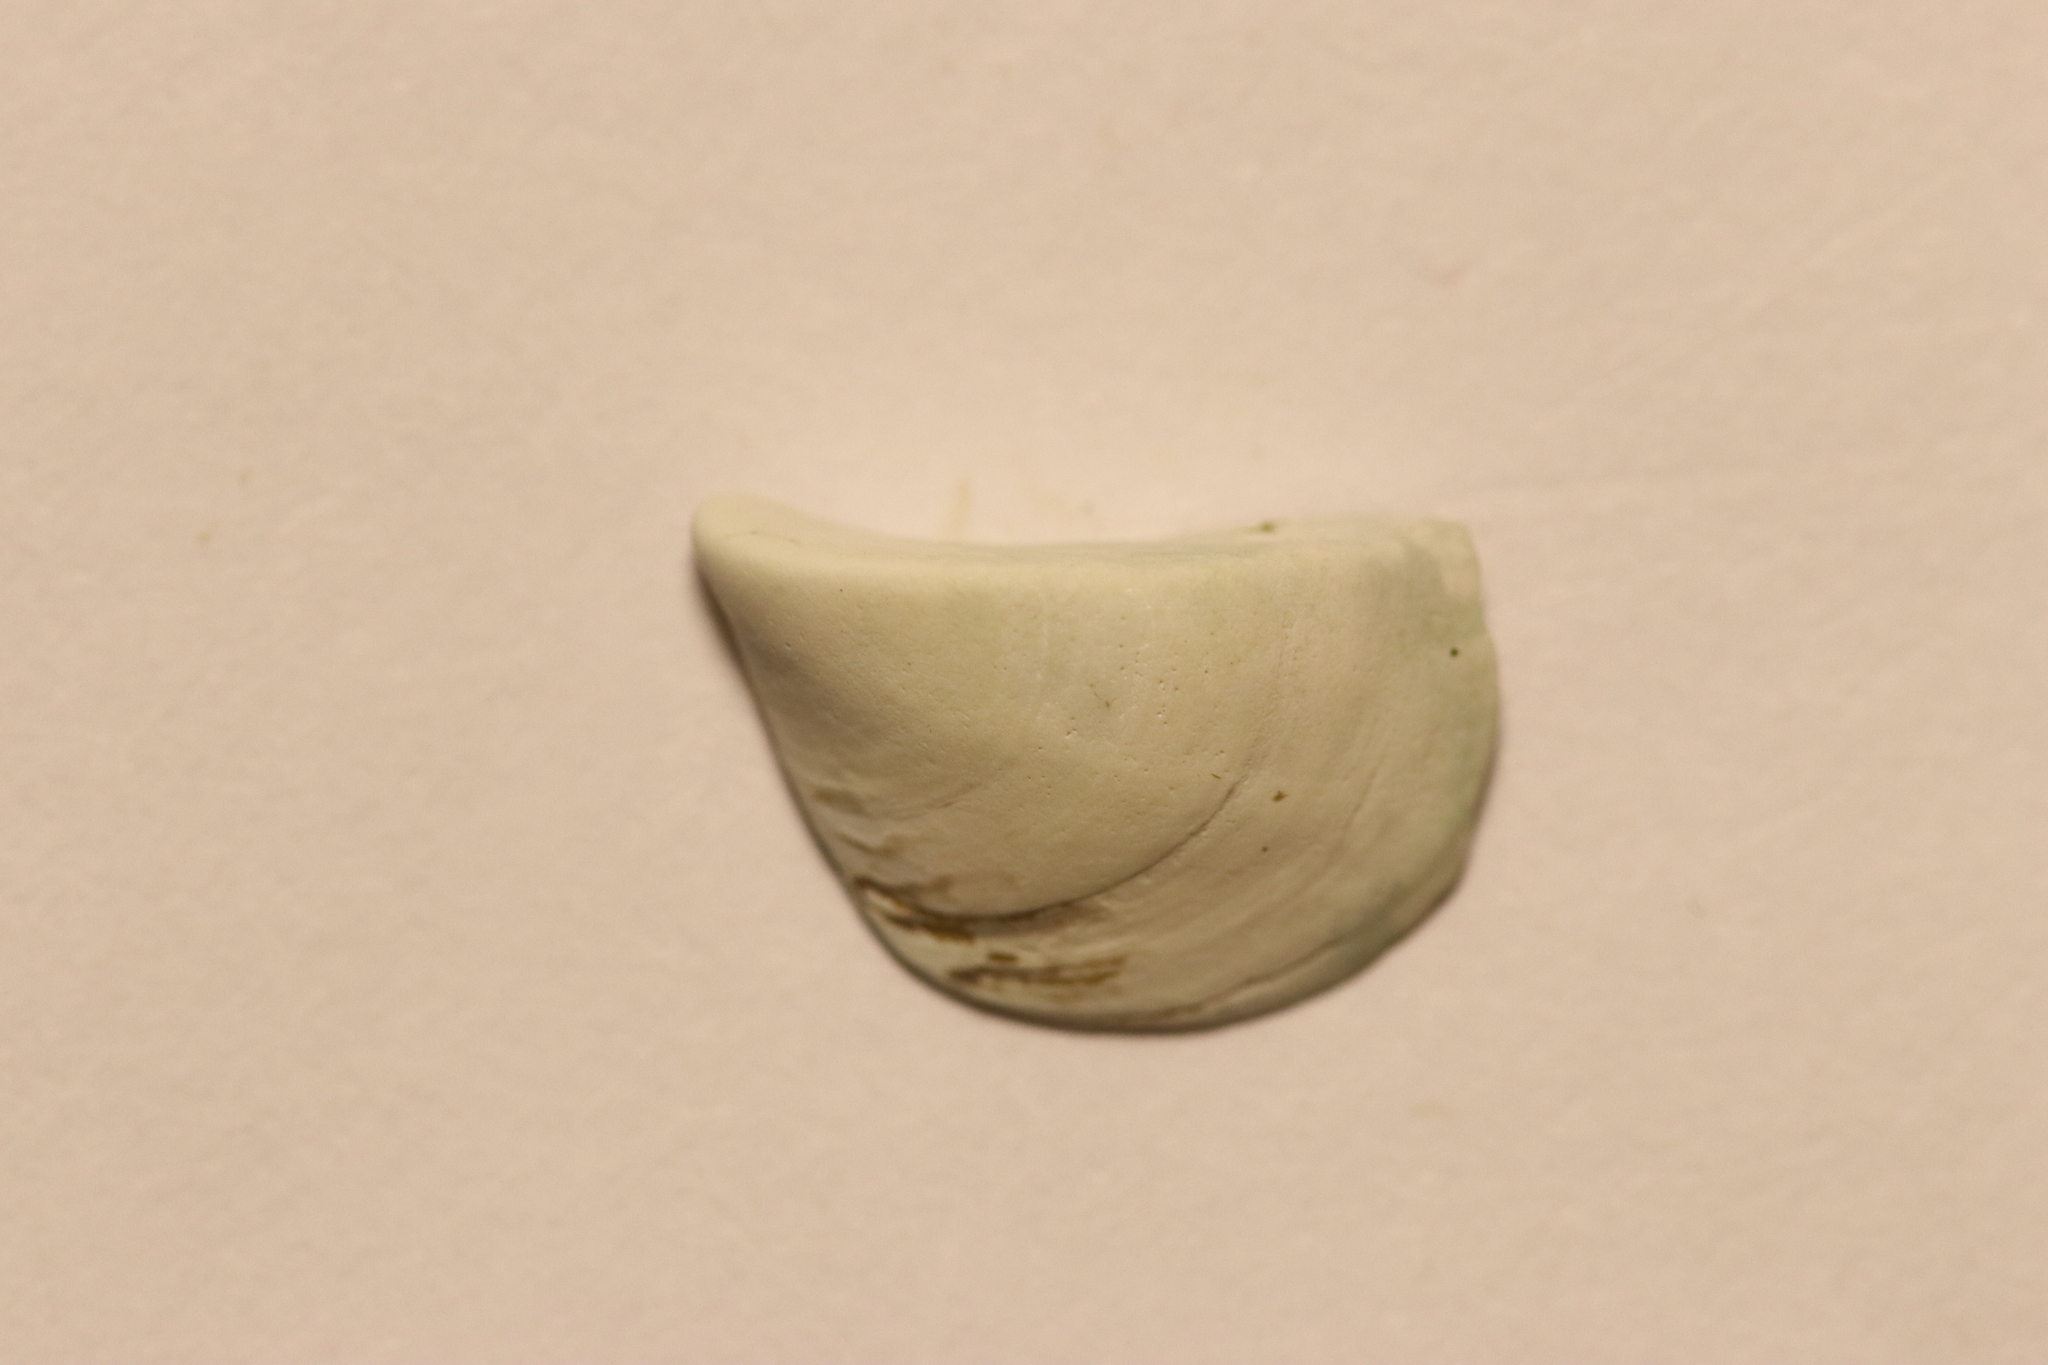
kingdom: Animalia
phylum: Mollusca
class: Bivalvia
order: Myida
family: Dreissenidae
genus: Dreissena
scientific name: Dreissena polymorpha
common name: Zebra mussel
